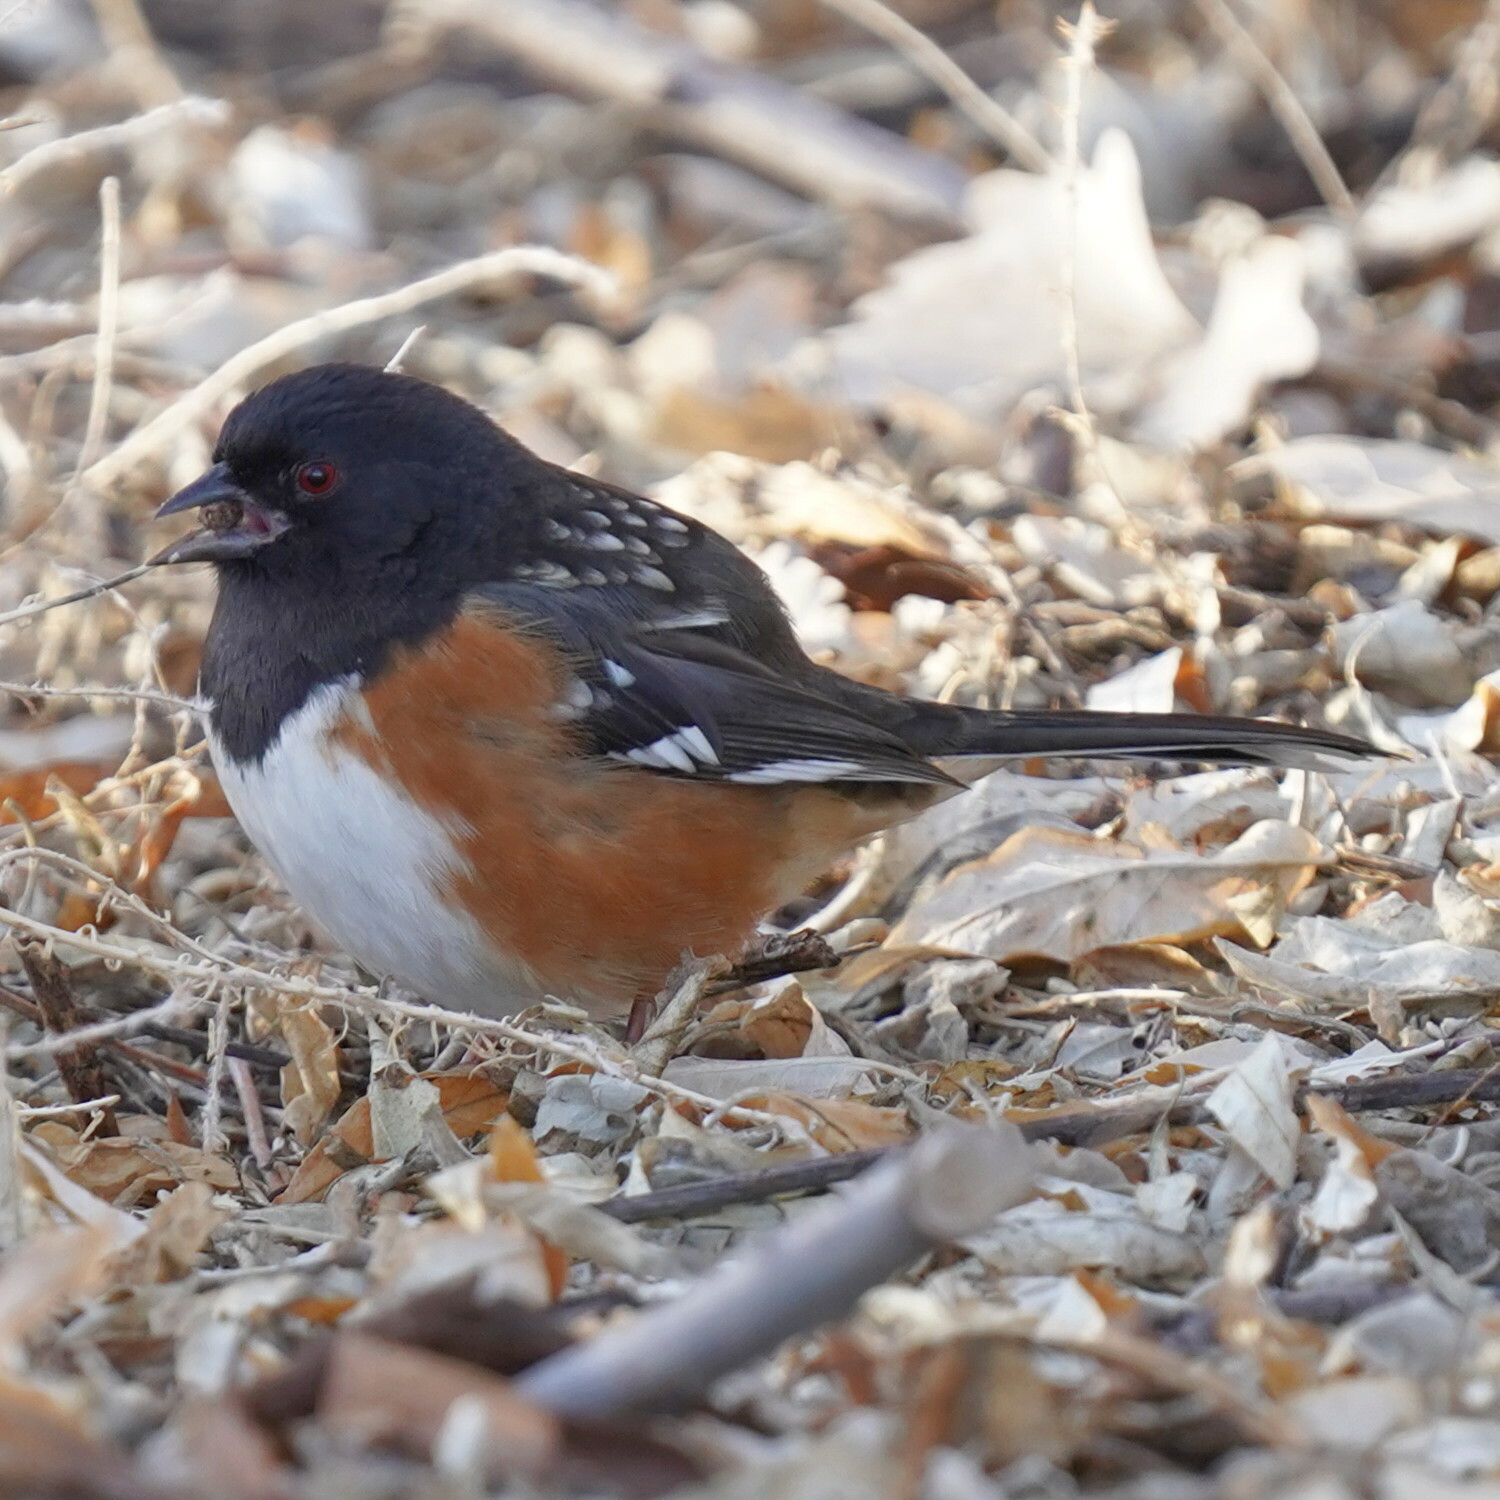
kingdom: Animalia
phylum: Chordata
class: Aves
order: Passeriformes
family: Passerellidae
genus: Pipilo
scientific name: Pipilo maculatus
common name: Spotted towhee
